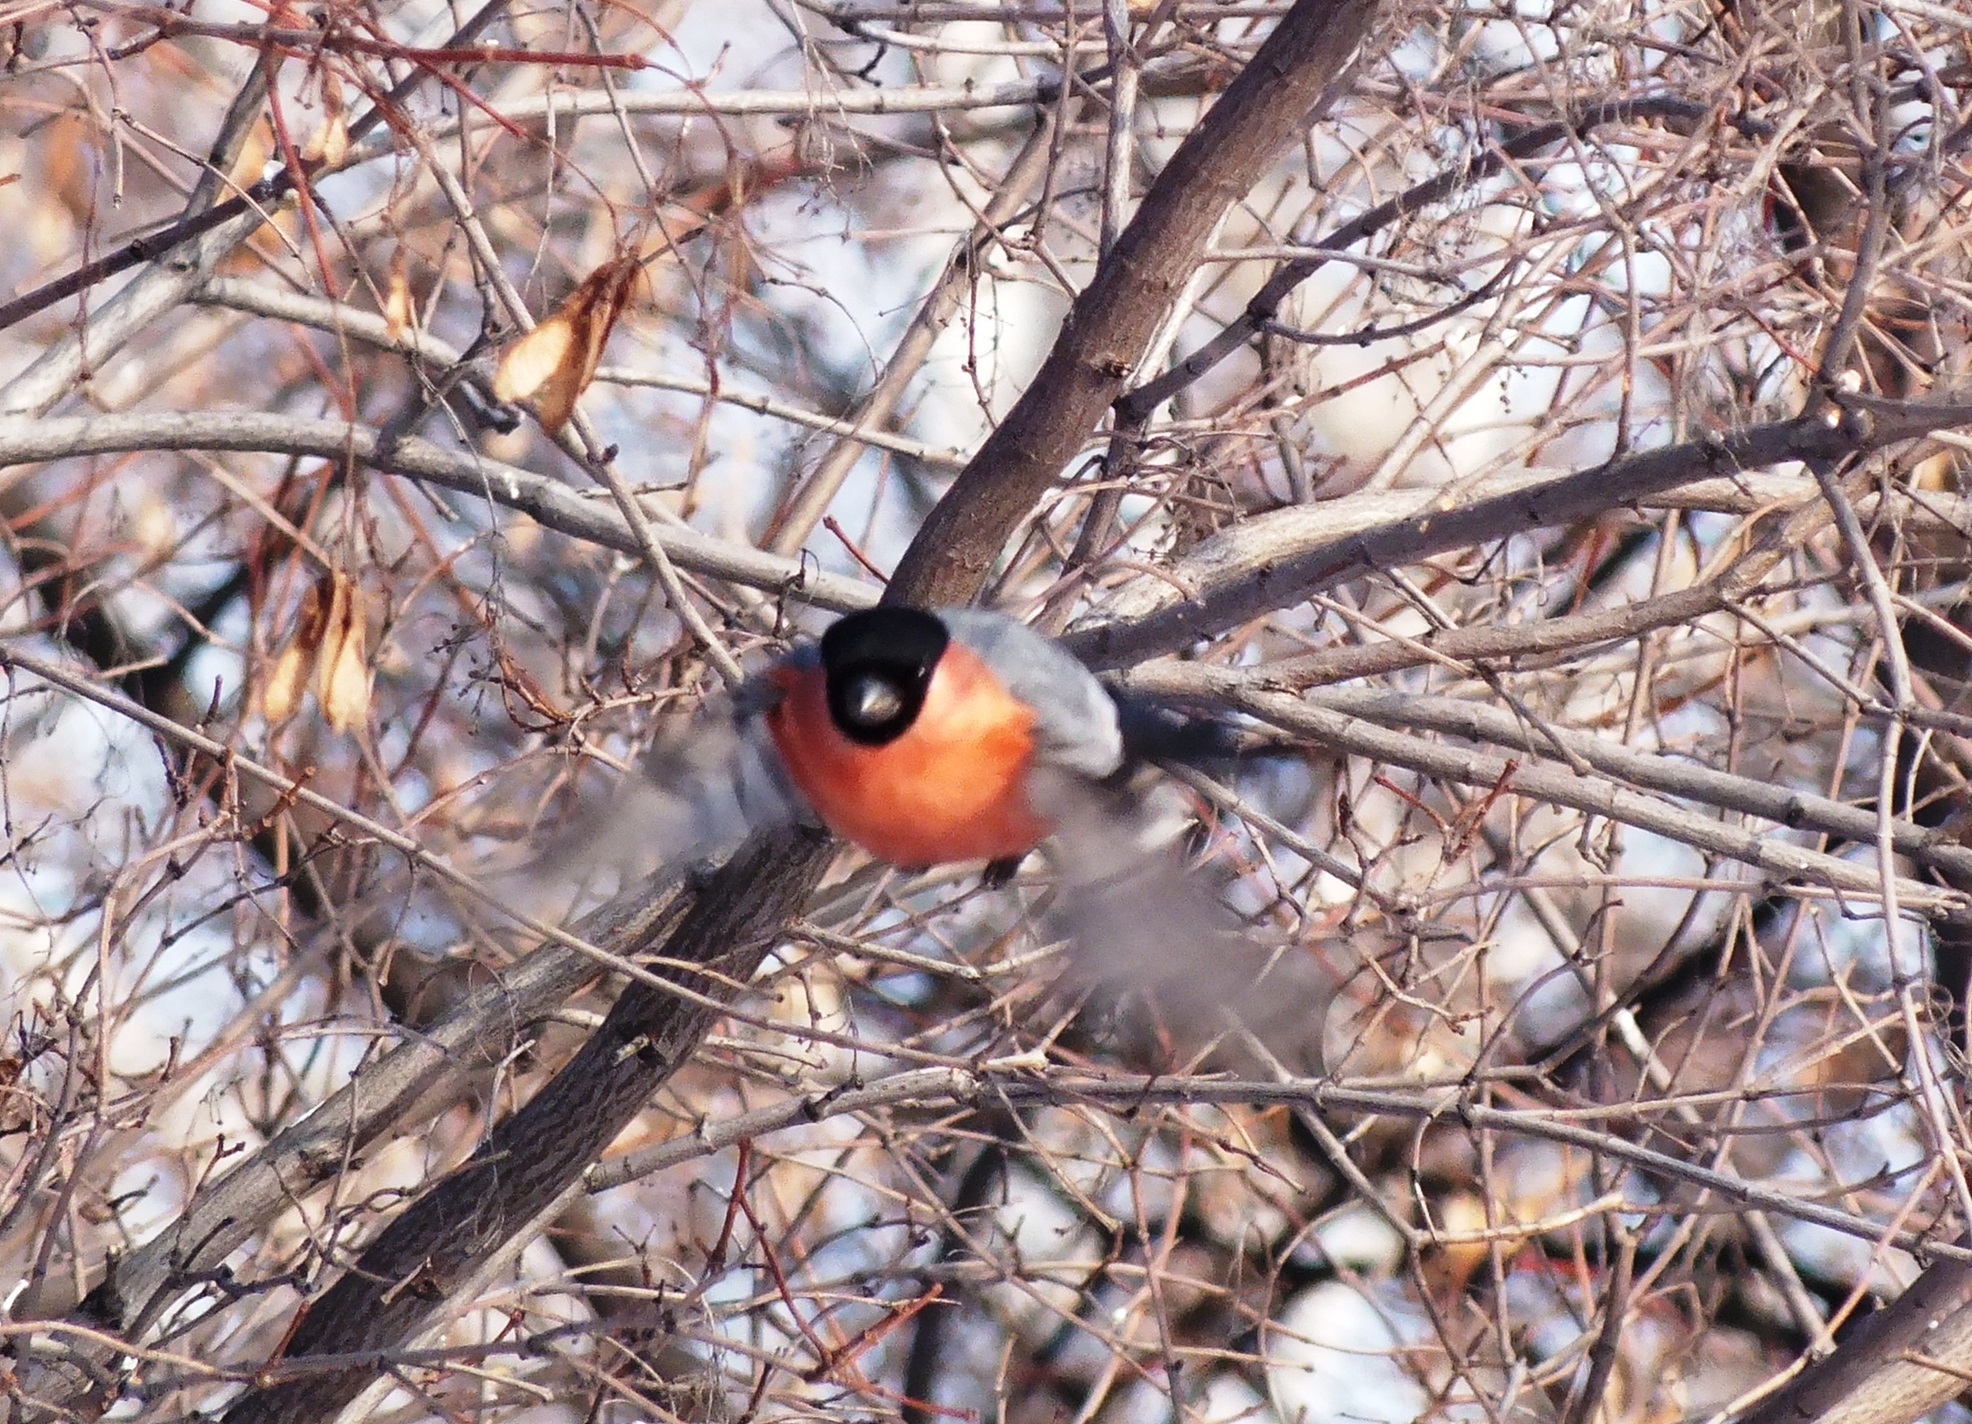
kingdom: Animalia
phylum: Chordata
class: Aves
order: Passeriformes
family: Fringillidae
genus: Pyrrhula
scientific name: Pyrrhula pyrrhula
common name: Eurasian bullfinch
